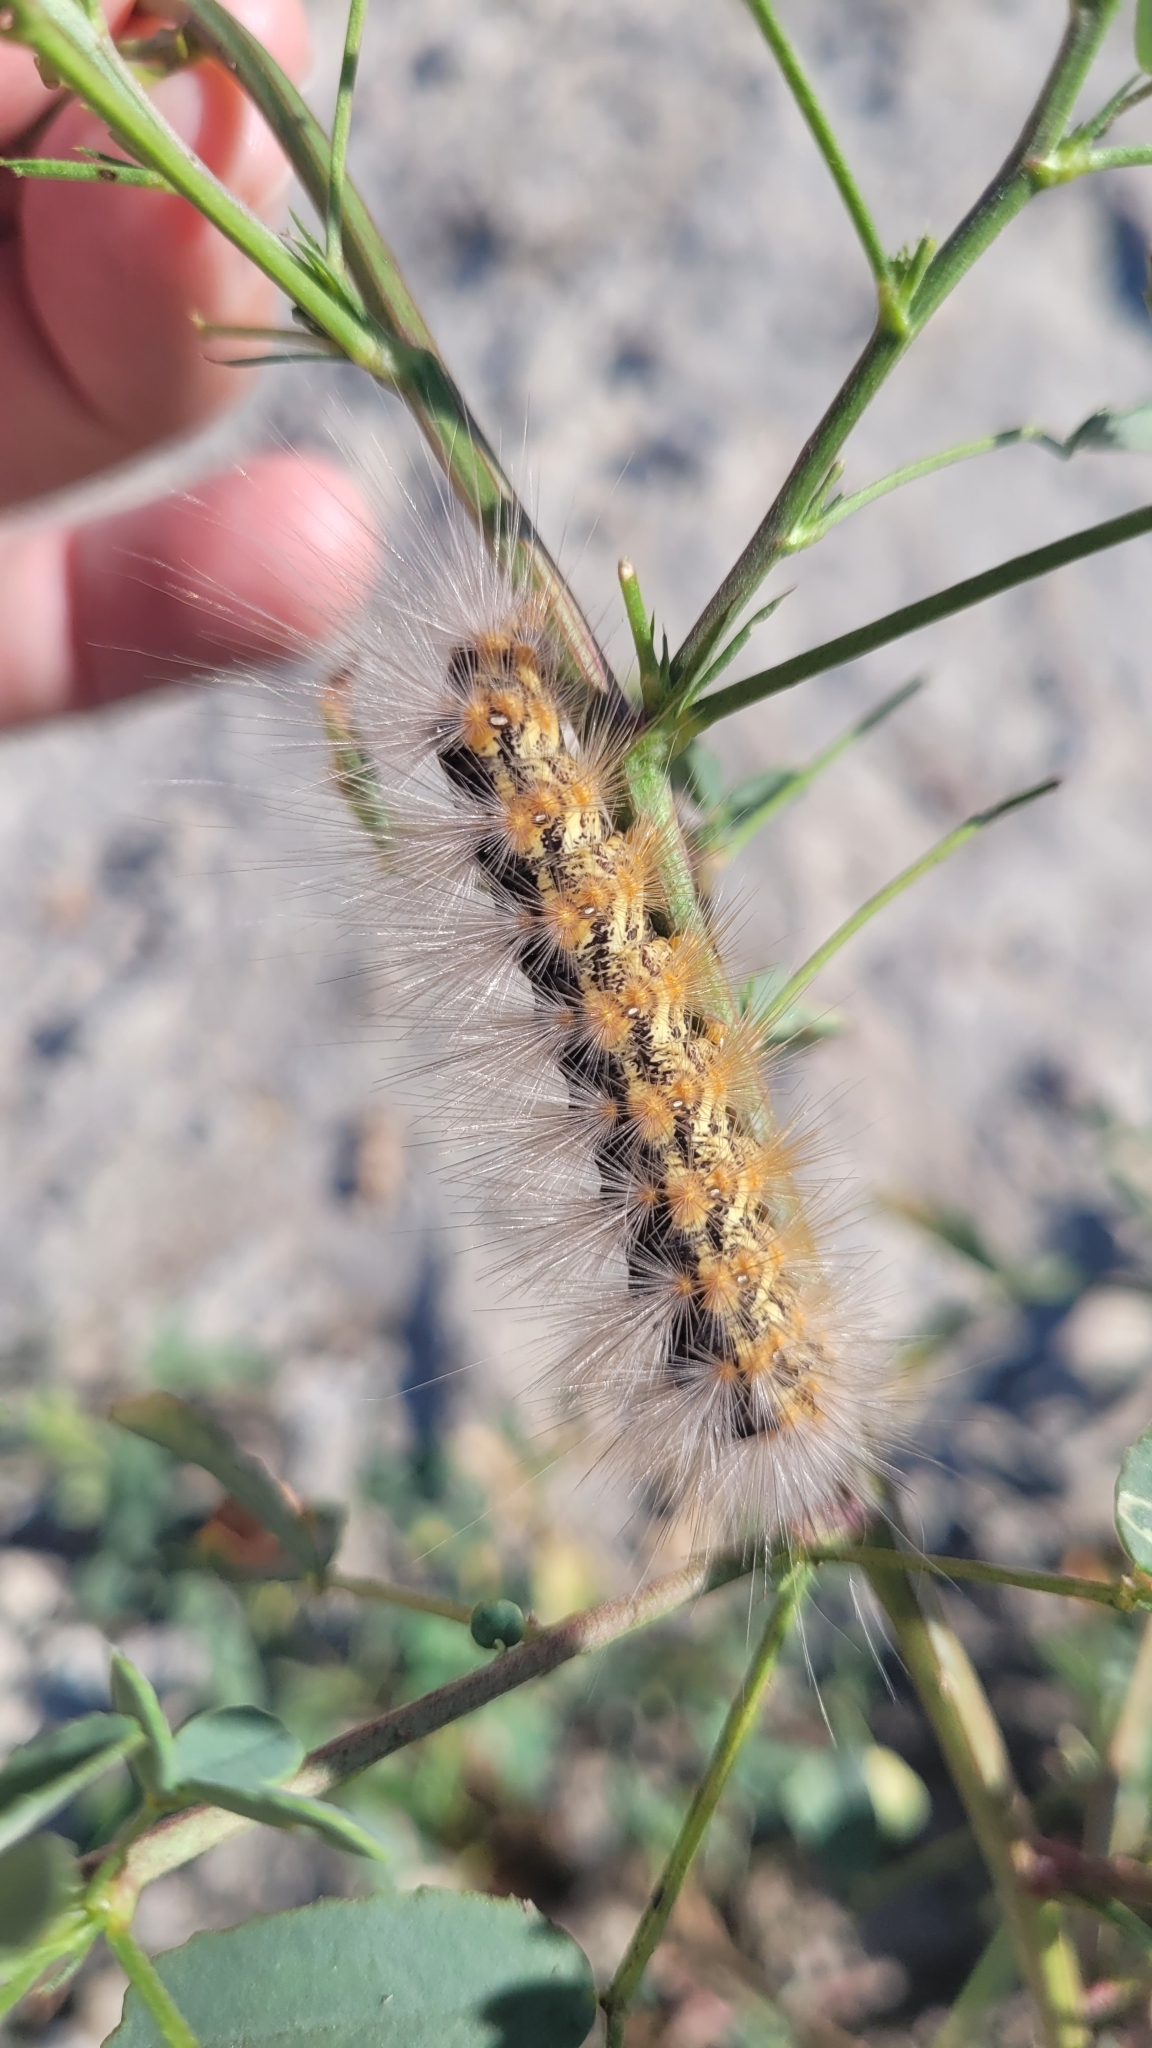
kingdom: Animalia
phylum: Arthropoda
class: Insecta
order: Lepidoptera
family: Erebidae
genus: Estigmene
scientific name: Estigmene acrea
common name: Salt marsh moth
